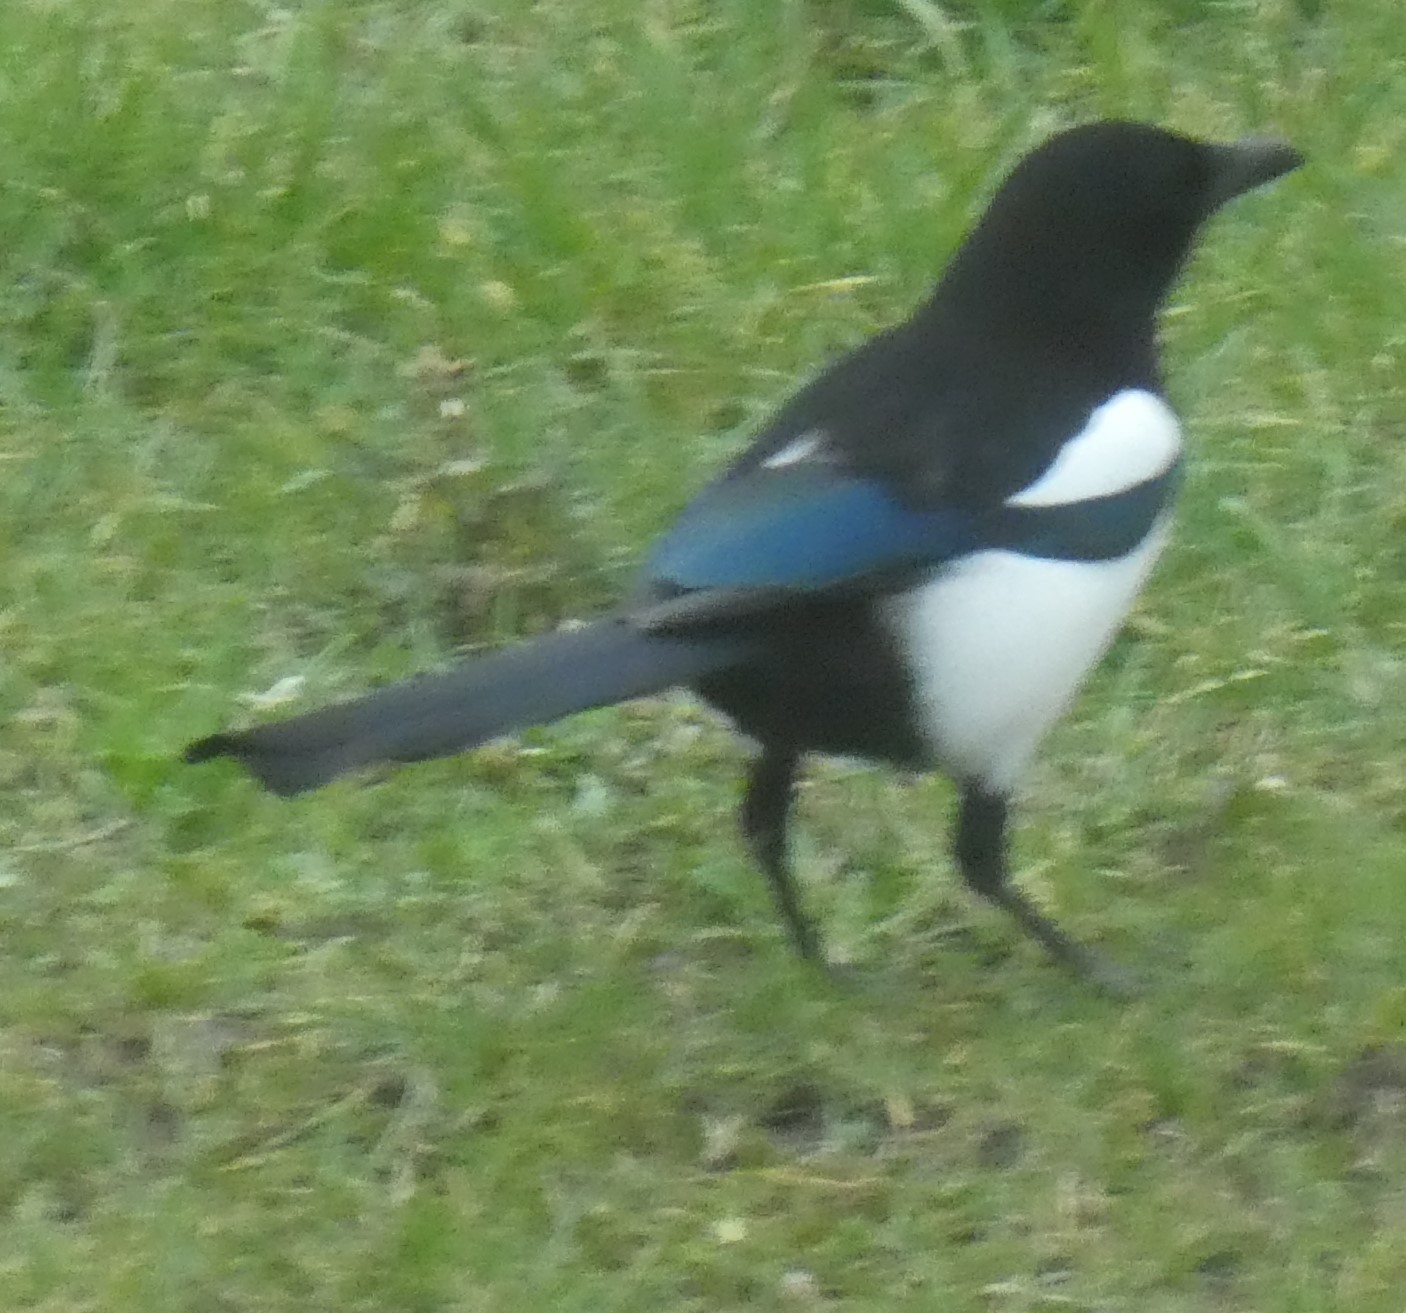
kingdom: Animalia
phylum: Chordata
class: Aves
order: Passeriformes
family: Corvidae
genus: Pica
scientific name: Pica pica
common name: Eurasian magpie
